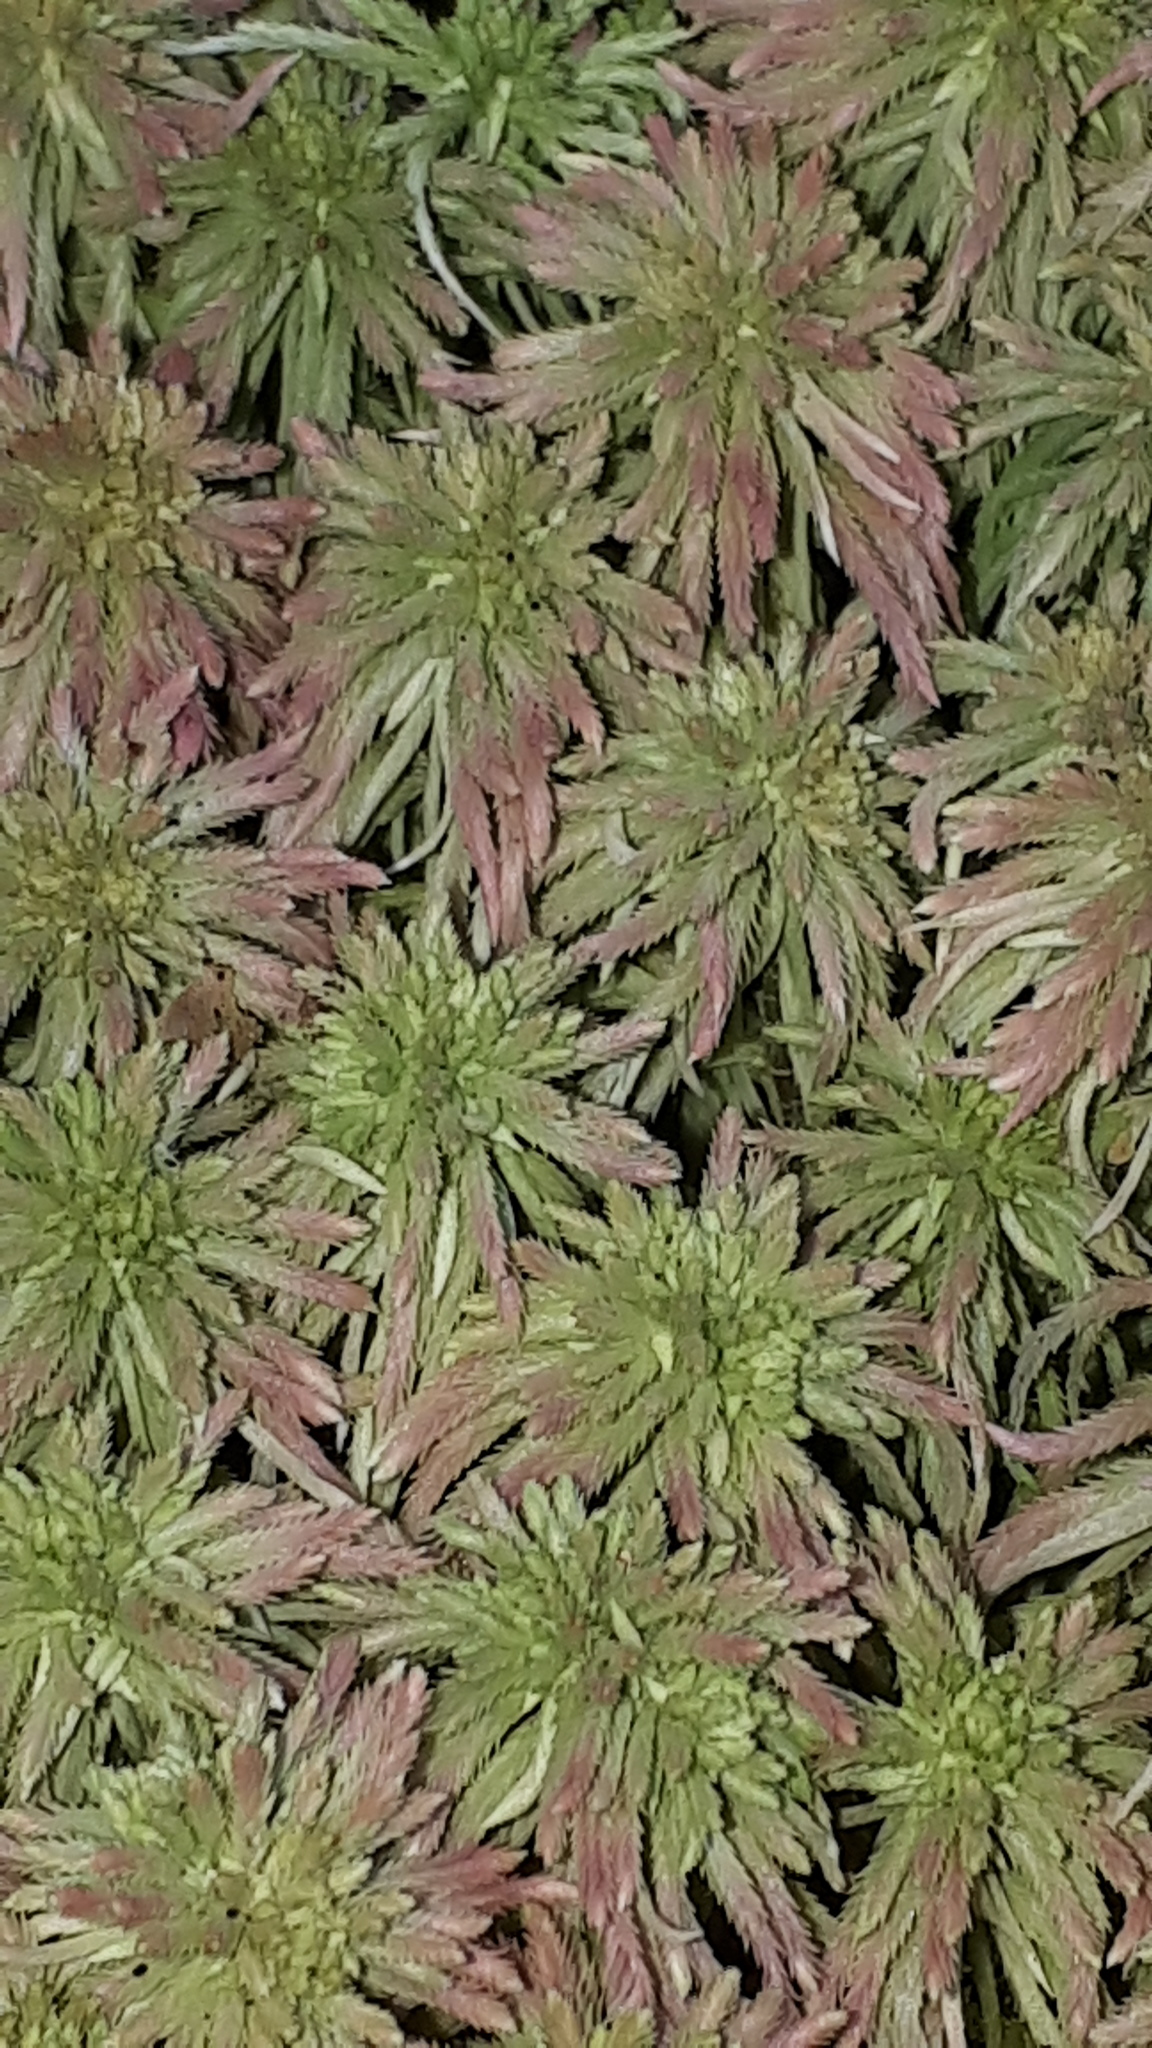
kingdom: Plantae
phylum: Bryophyta
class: Sphagnopsida
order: Sphagnales
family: Sphagnaceae
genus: Sphagnum
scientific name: Sphagnum quinquefarium
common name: Five-ranked peat moss
